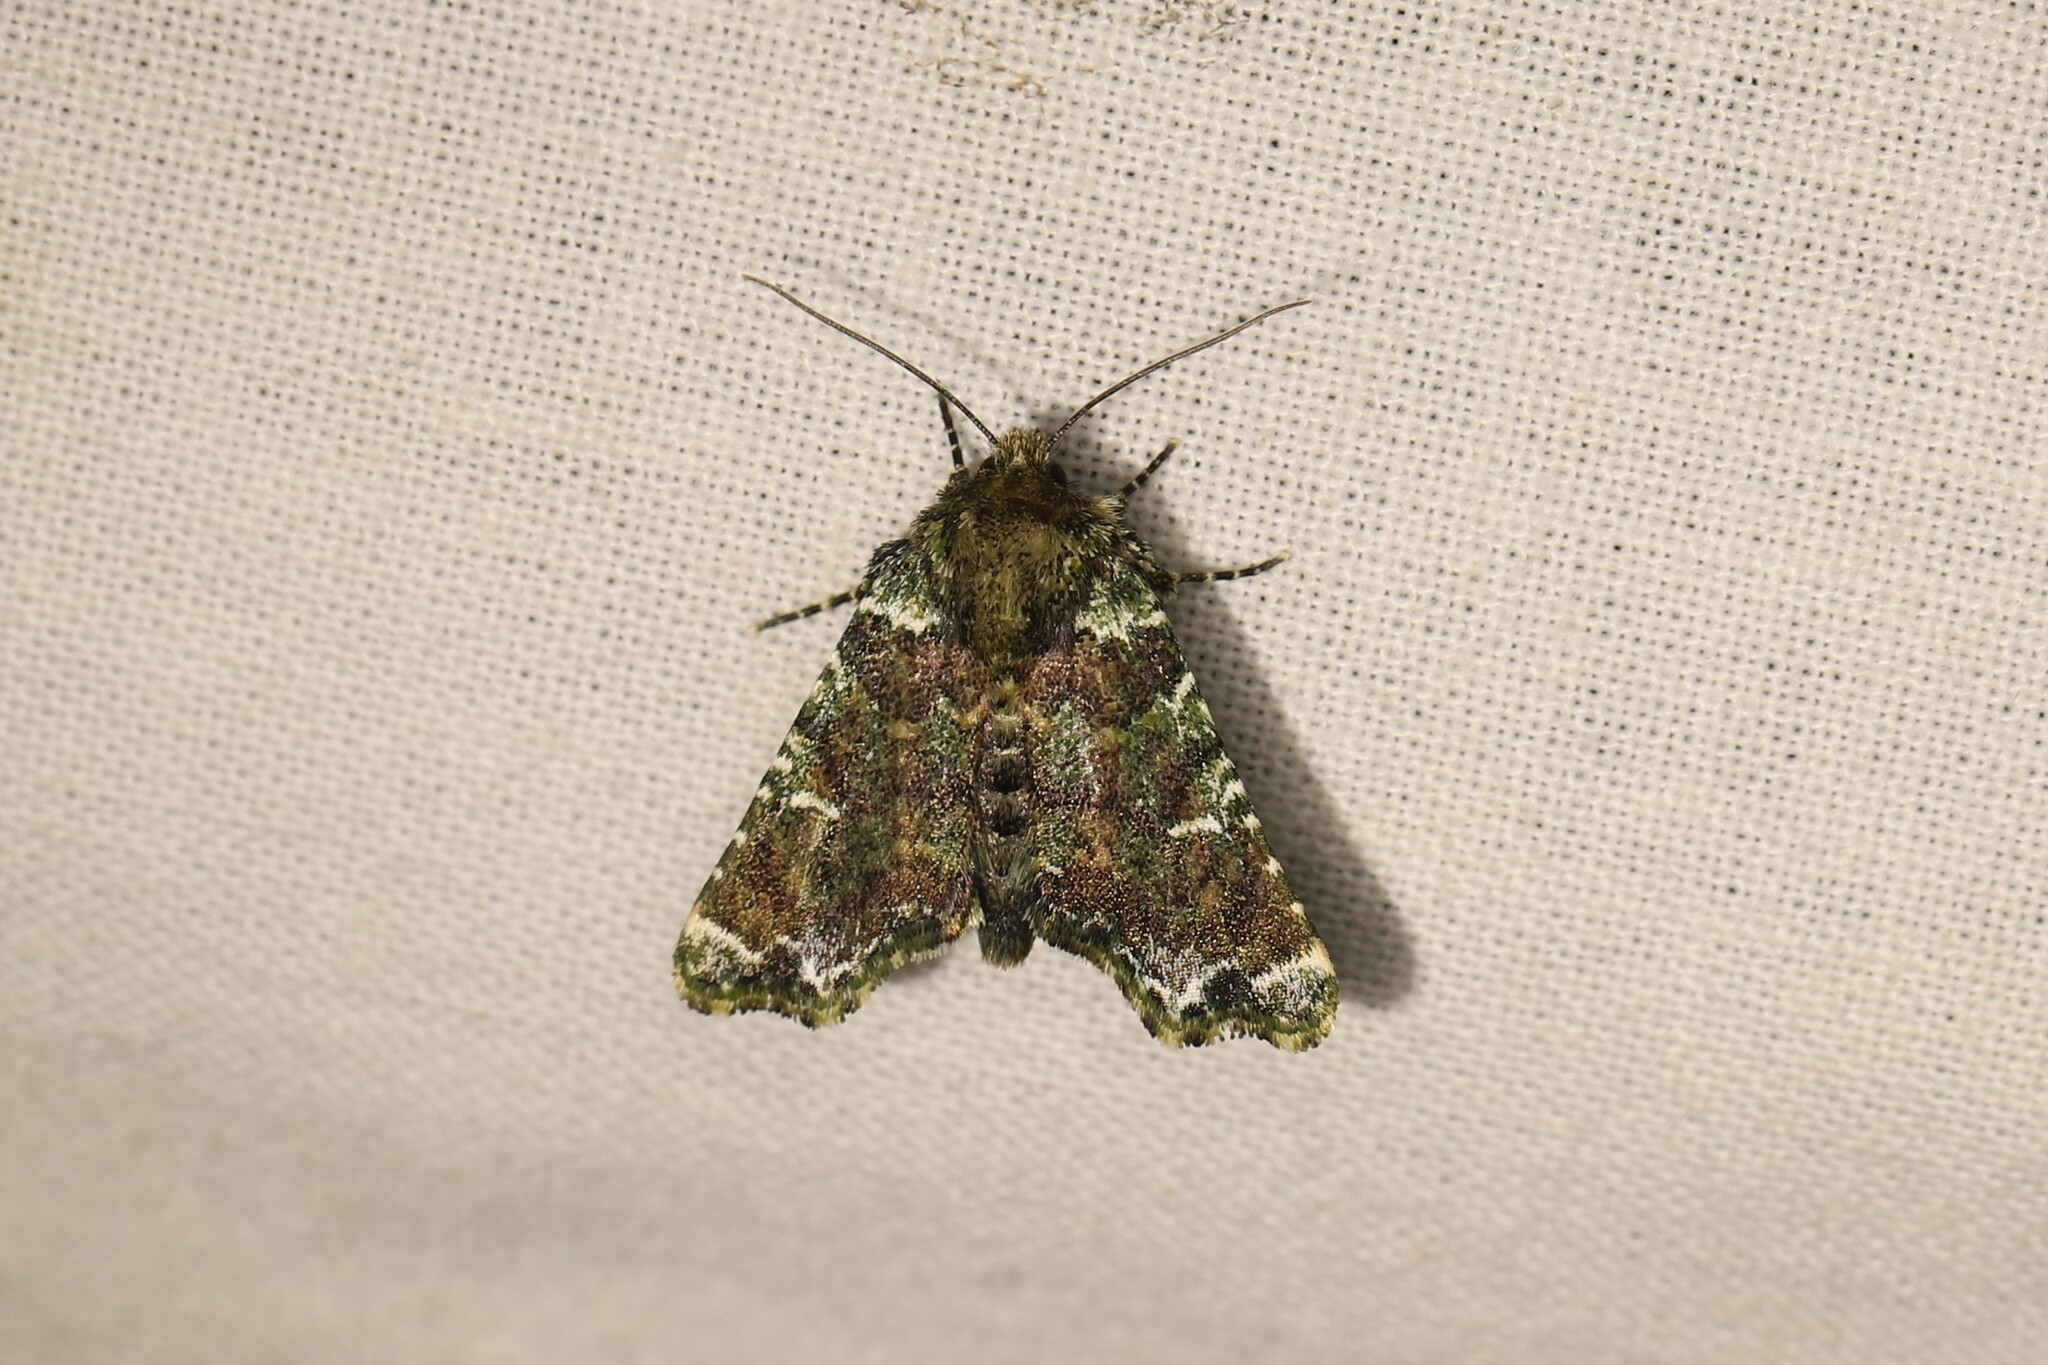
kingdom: Animalia
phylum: Arthropoda
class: Insecta
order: Lepidoptera
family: Noctuidae
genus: Chabuata
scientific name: Chabuata
